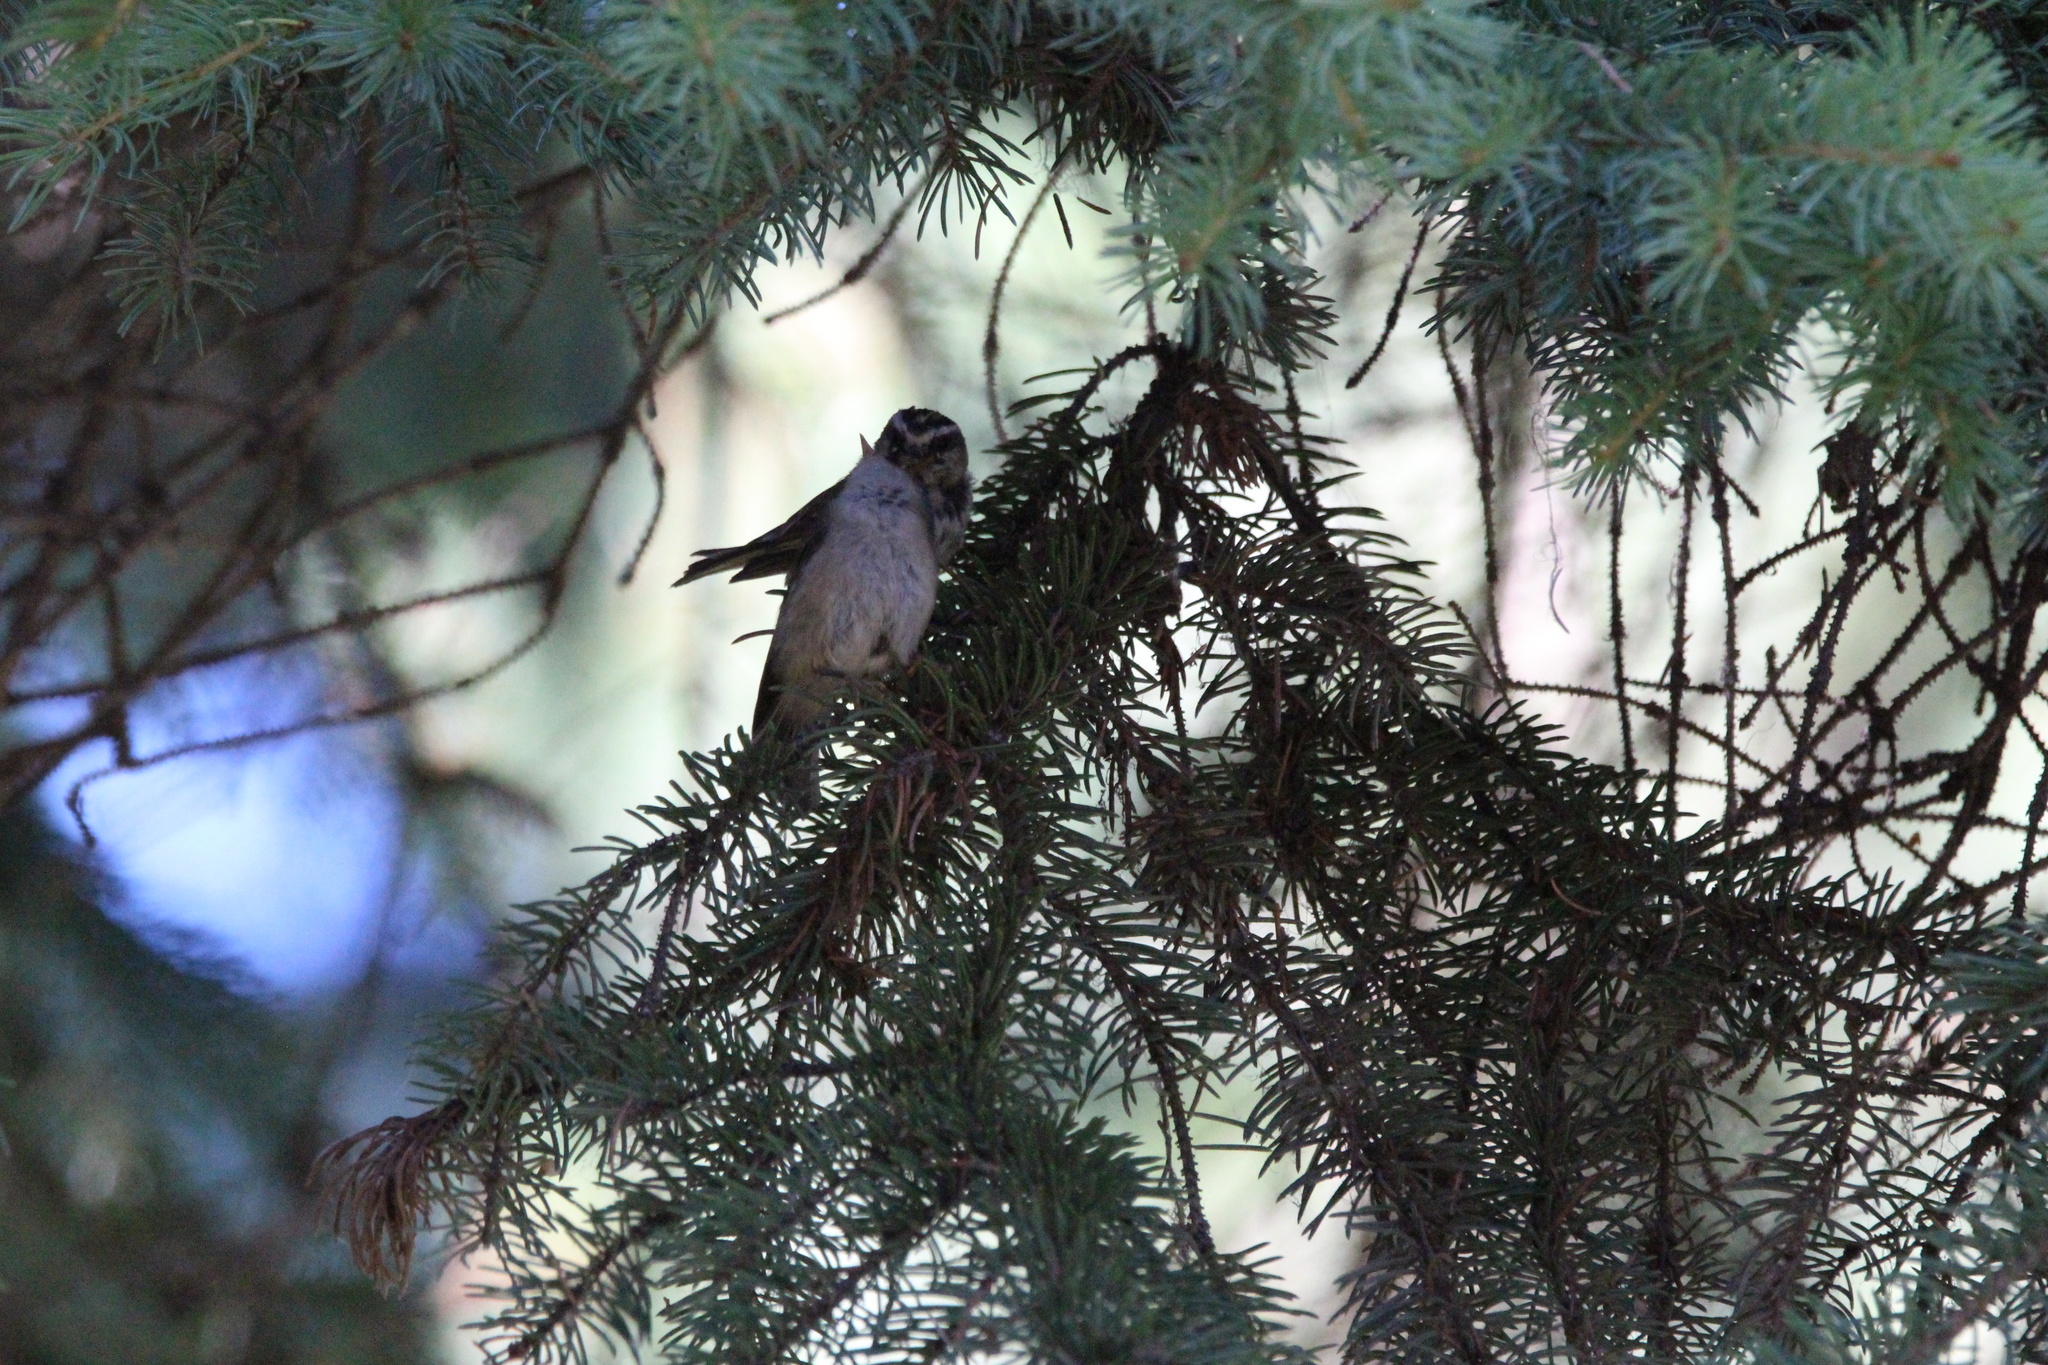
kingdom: Animalia
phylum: Chordata
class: Aves
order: Passeriformes
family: Regulidae
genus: Regulus
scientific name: Regulus satrapa
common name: Golden-crowned kinglet
